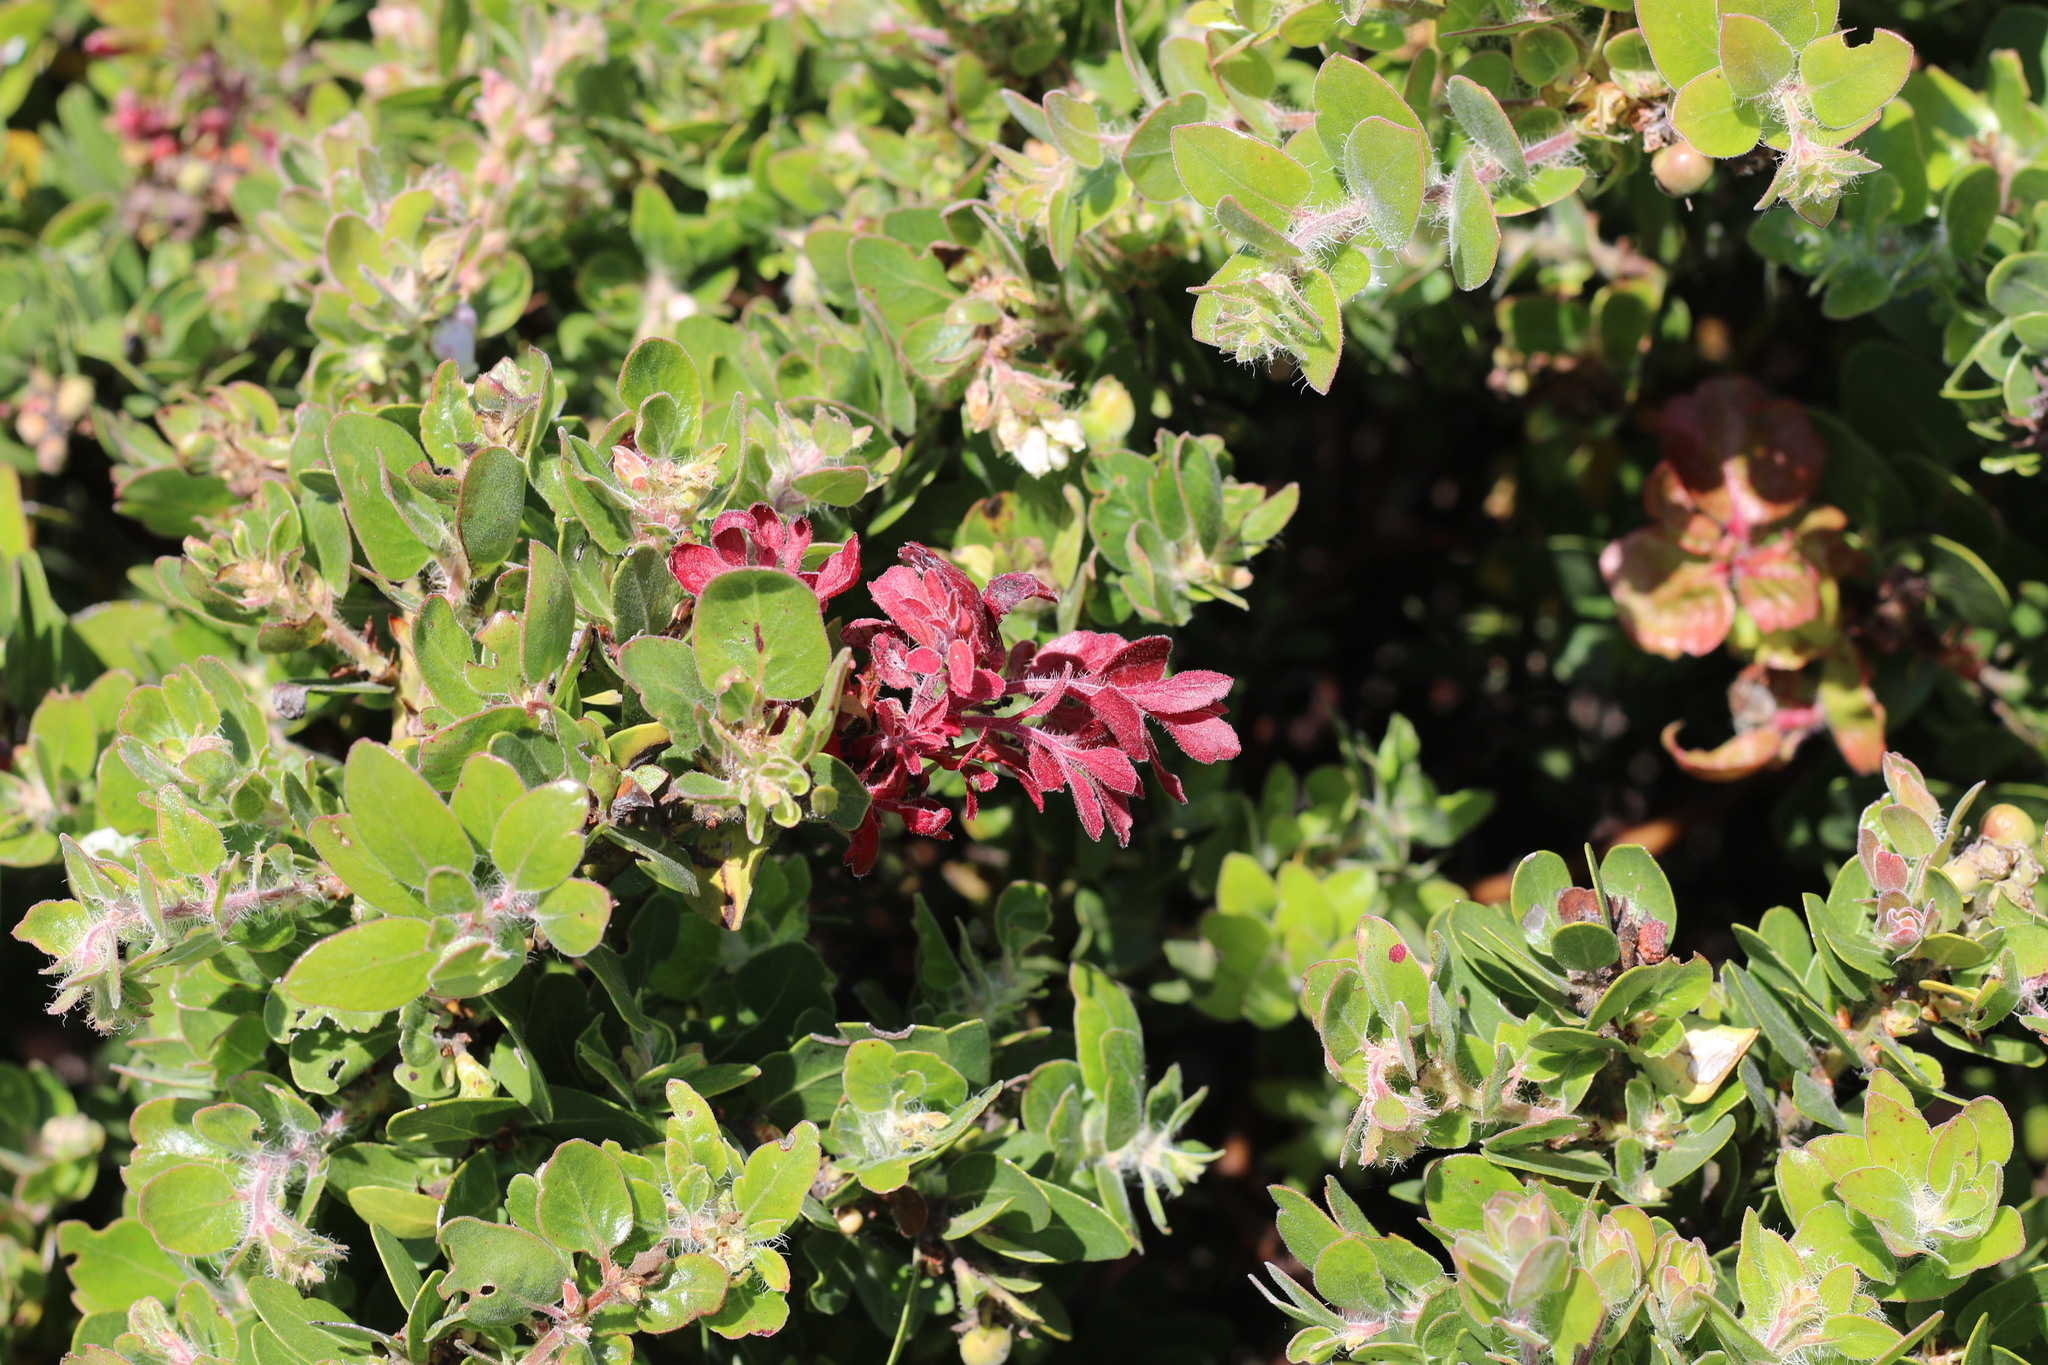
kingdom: Fungi
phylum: Basidiomycota
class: Exobasidiomycetes
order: Exobasidiales
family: Exobasidiaceae
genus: Exobasidium
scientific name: Exobasidium arctostaphyli
